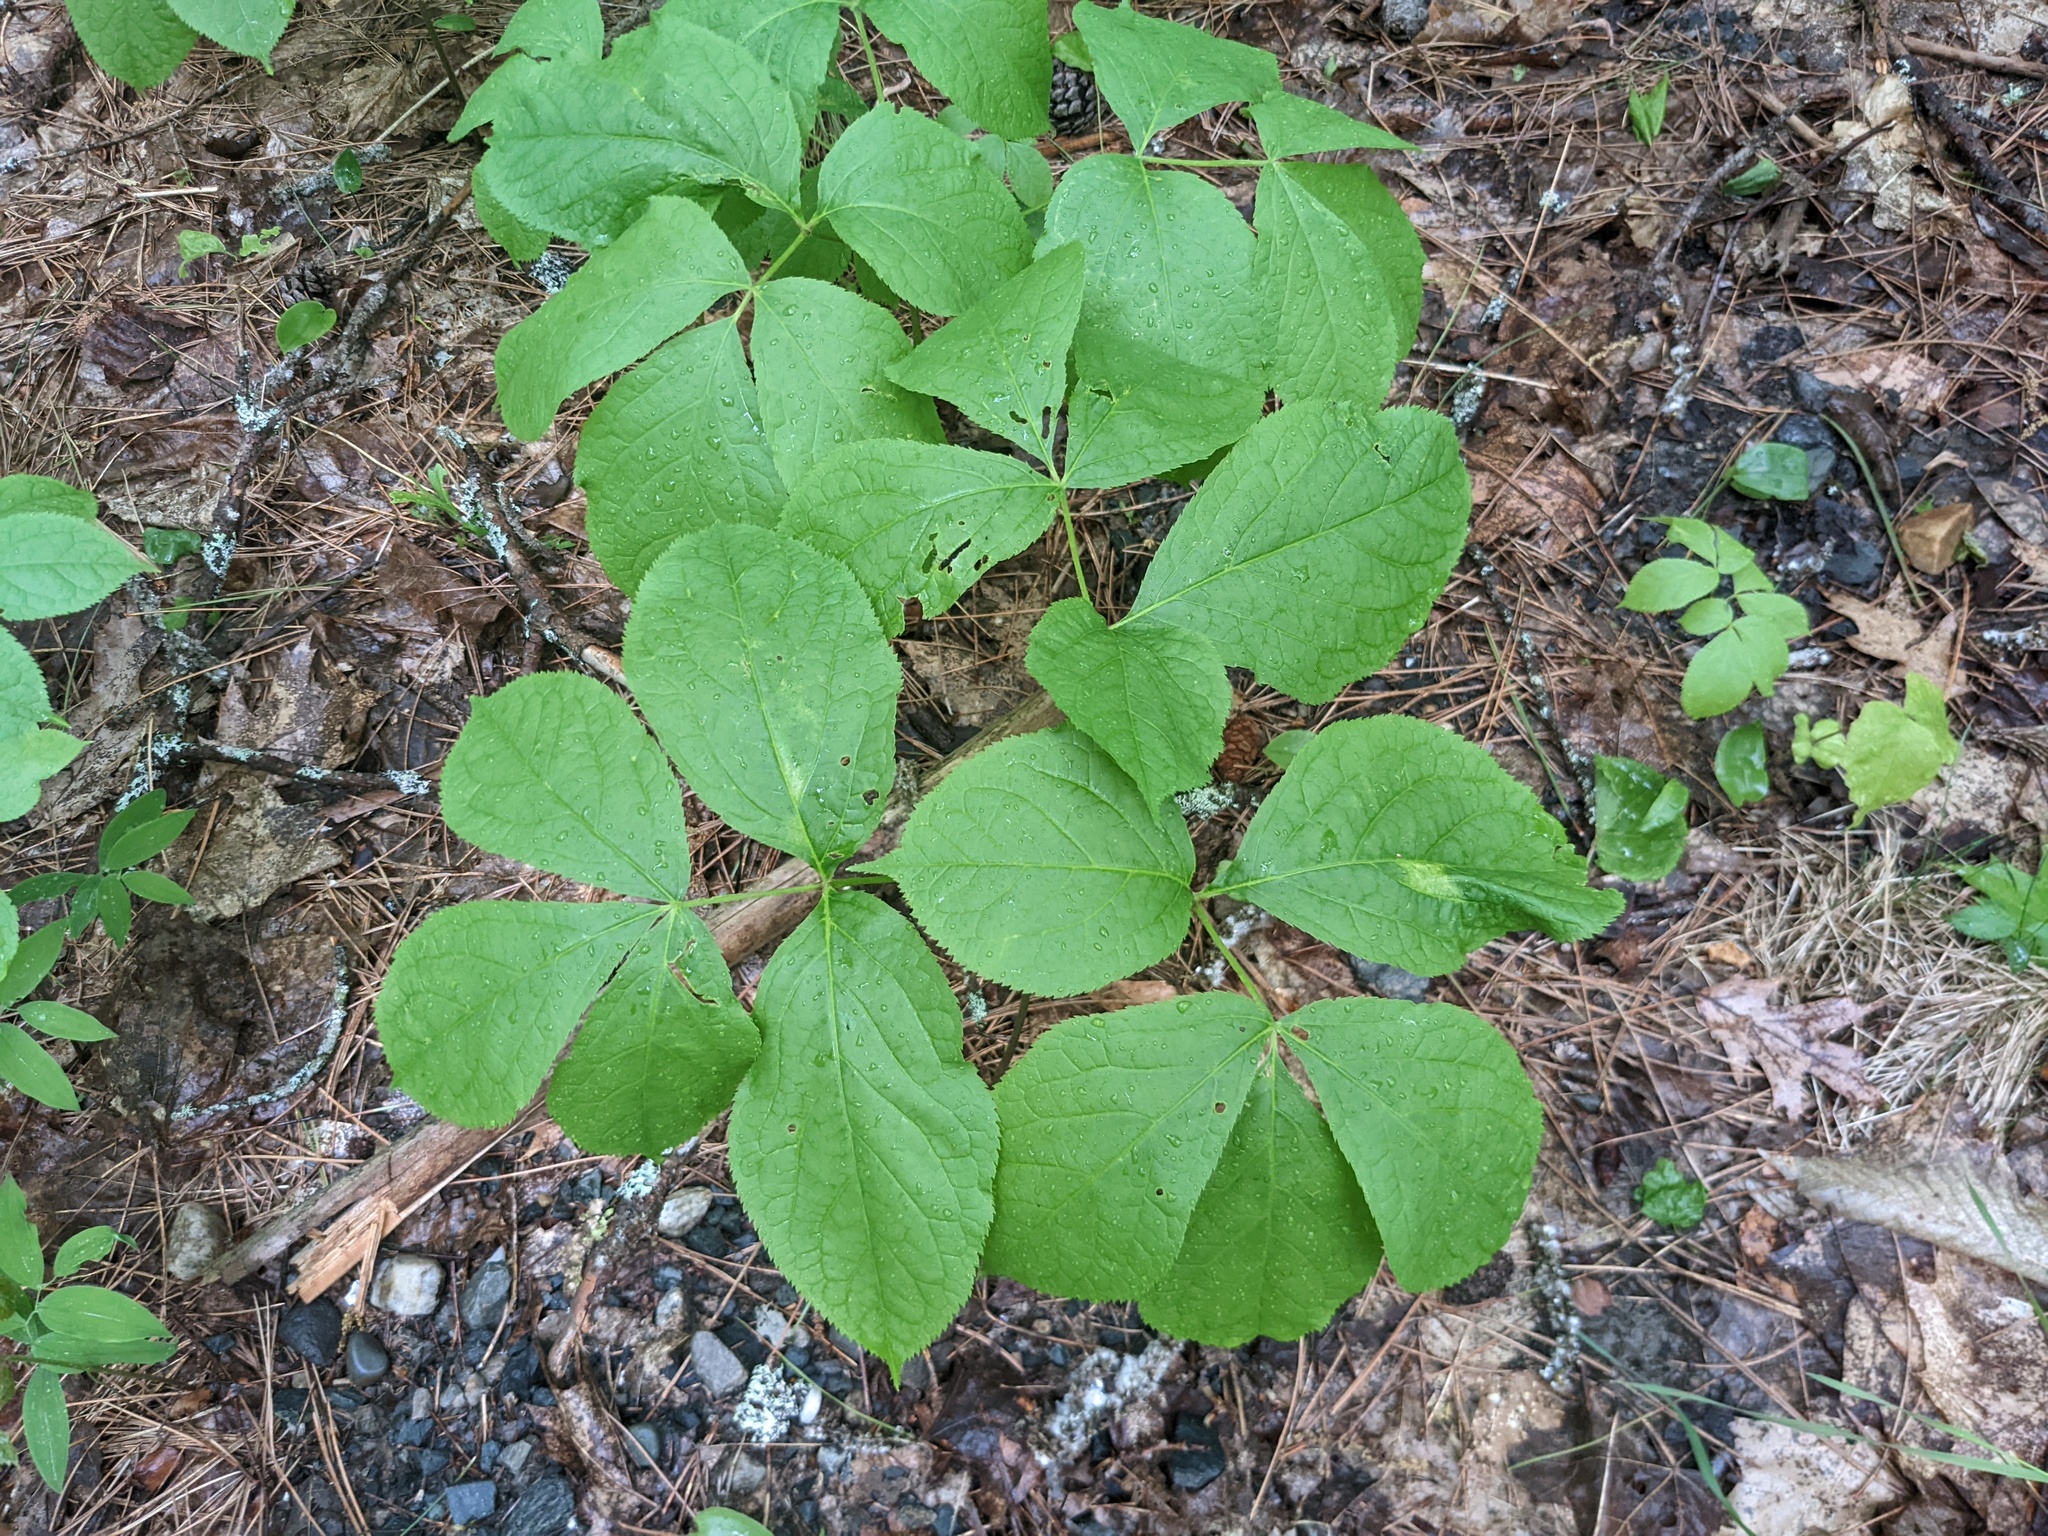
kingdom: Plantae
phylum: Tracheophyta
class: Magnoliopsida
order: Apiales
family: Araliaceae
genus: Aralia
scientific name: Aralia nudicaulis
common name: Wild sarsaparilla
